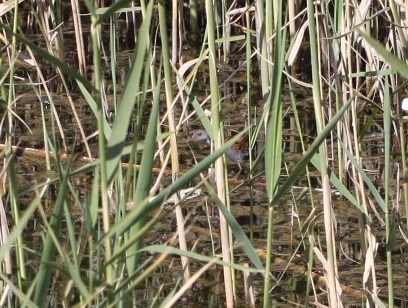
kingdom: Animalia
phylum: Chordata
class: Aves
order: Gruiformes
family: Rallidae
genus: Porzana
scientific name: Porzana parva
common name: Little crake
